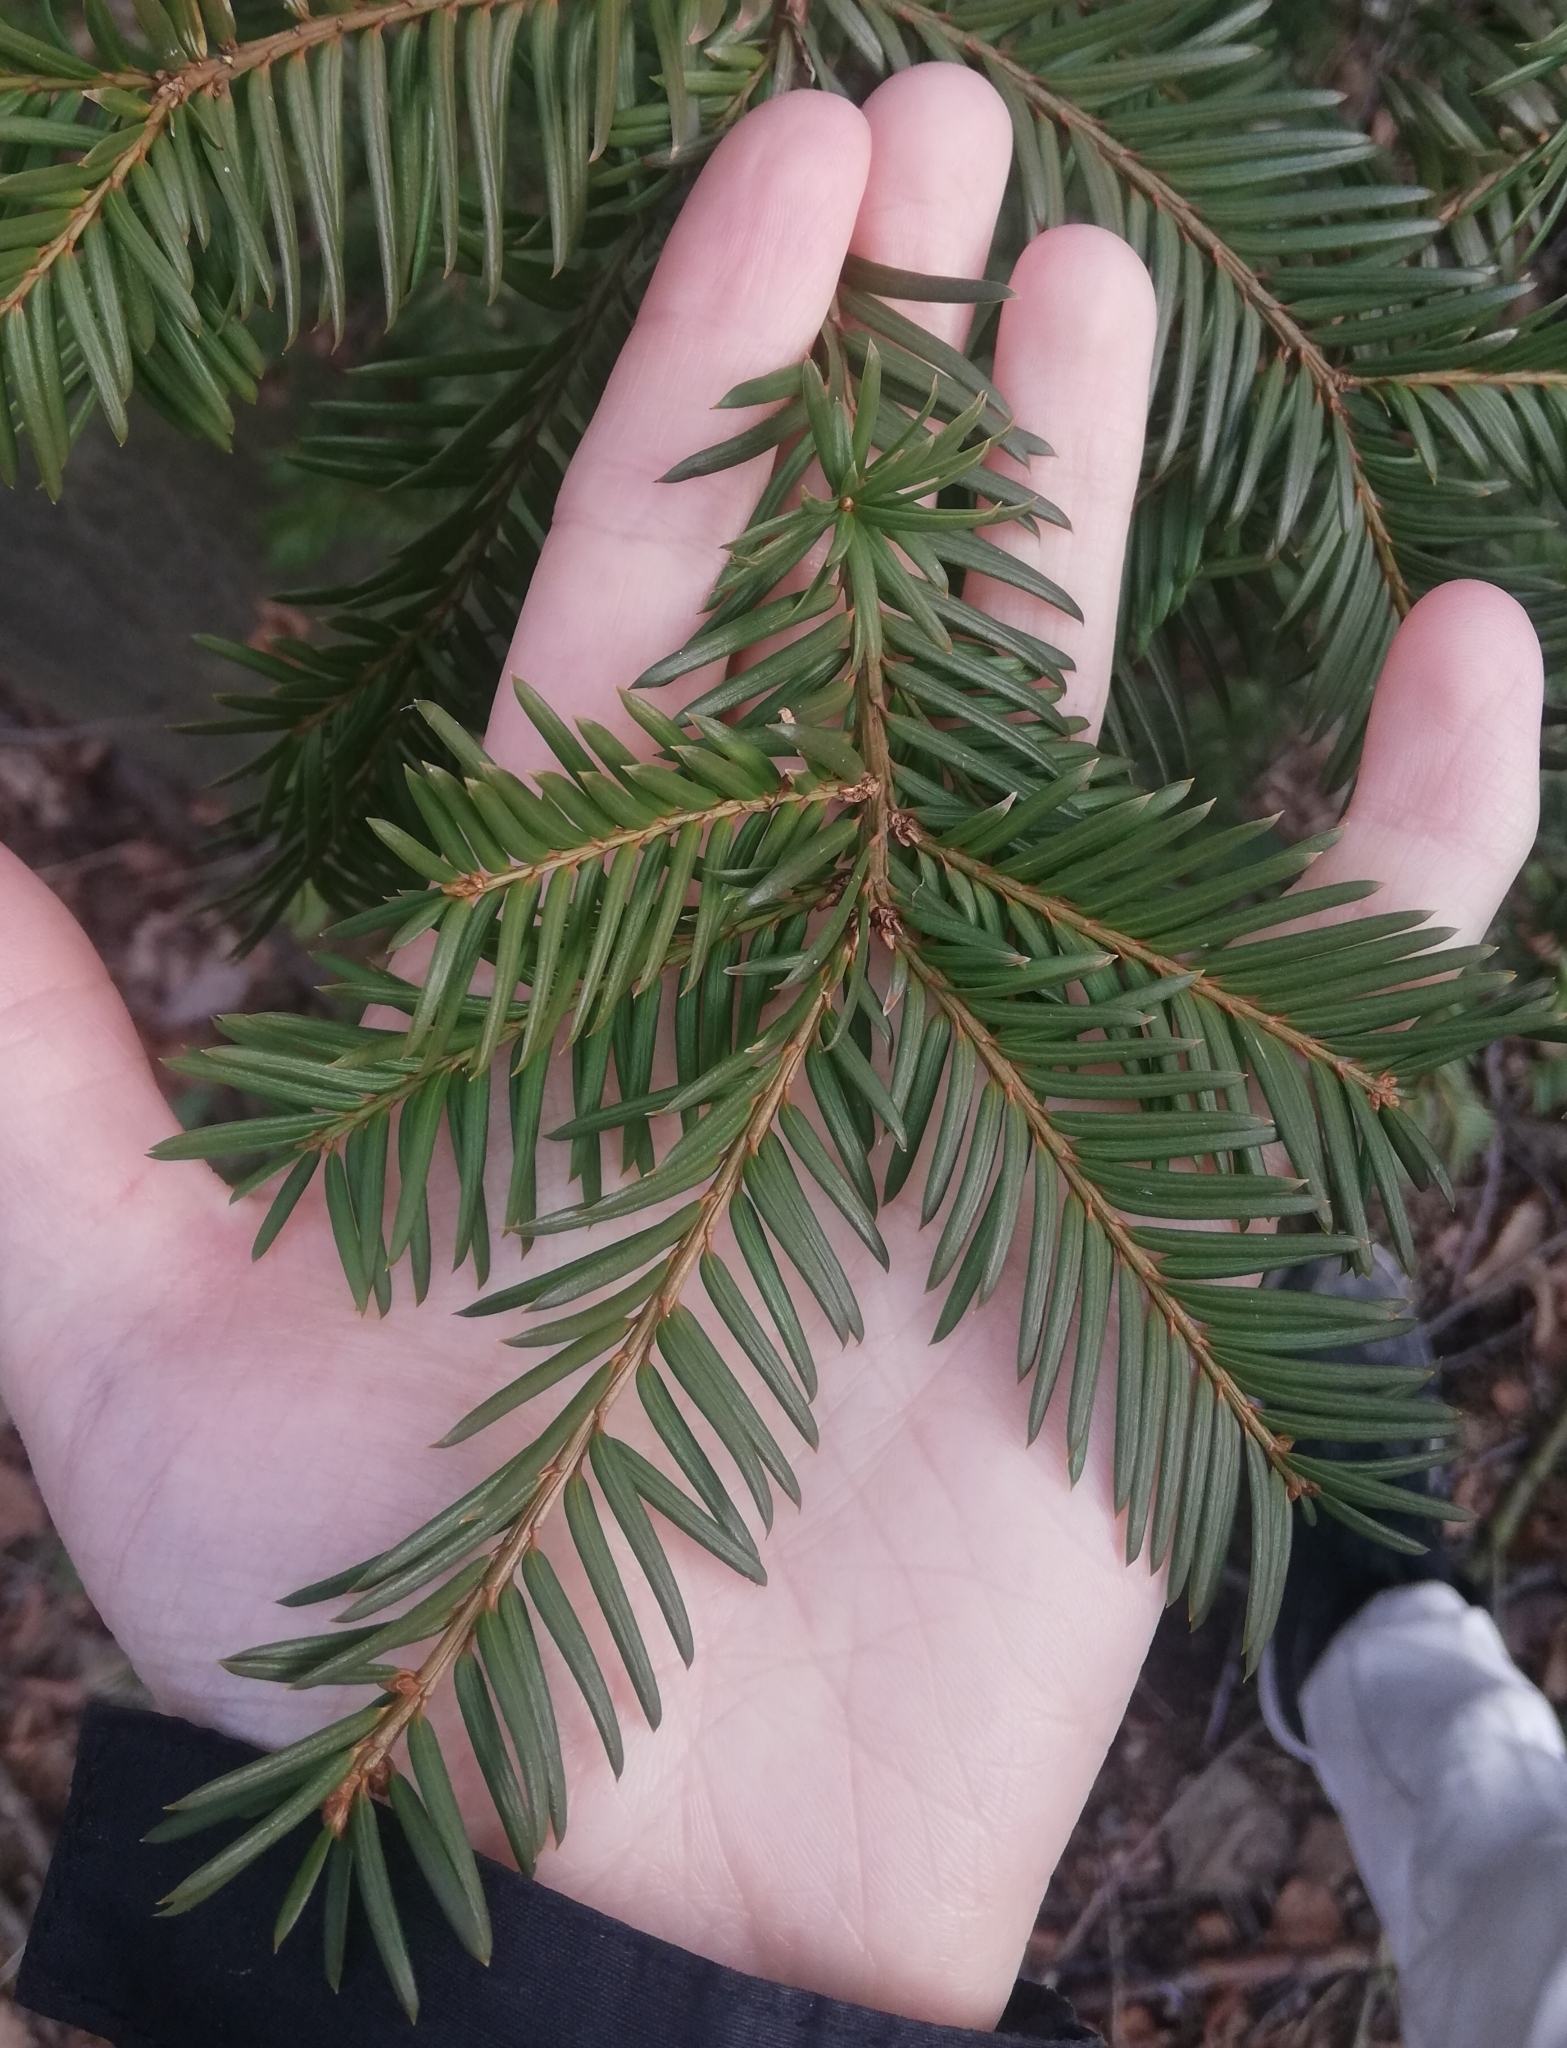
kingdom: Plantae
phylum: Tracheophyta
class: Pinopsida
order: Pinales
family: Taxaceae
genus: Taxus
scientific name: Taxus baccata
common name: Yew
